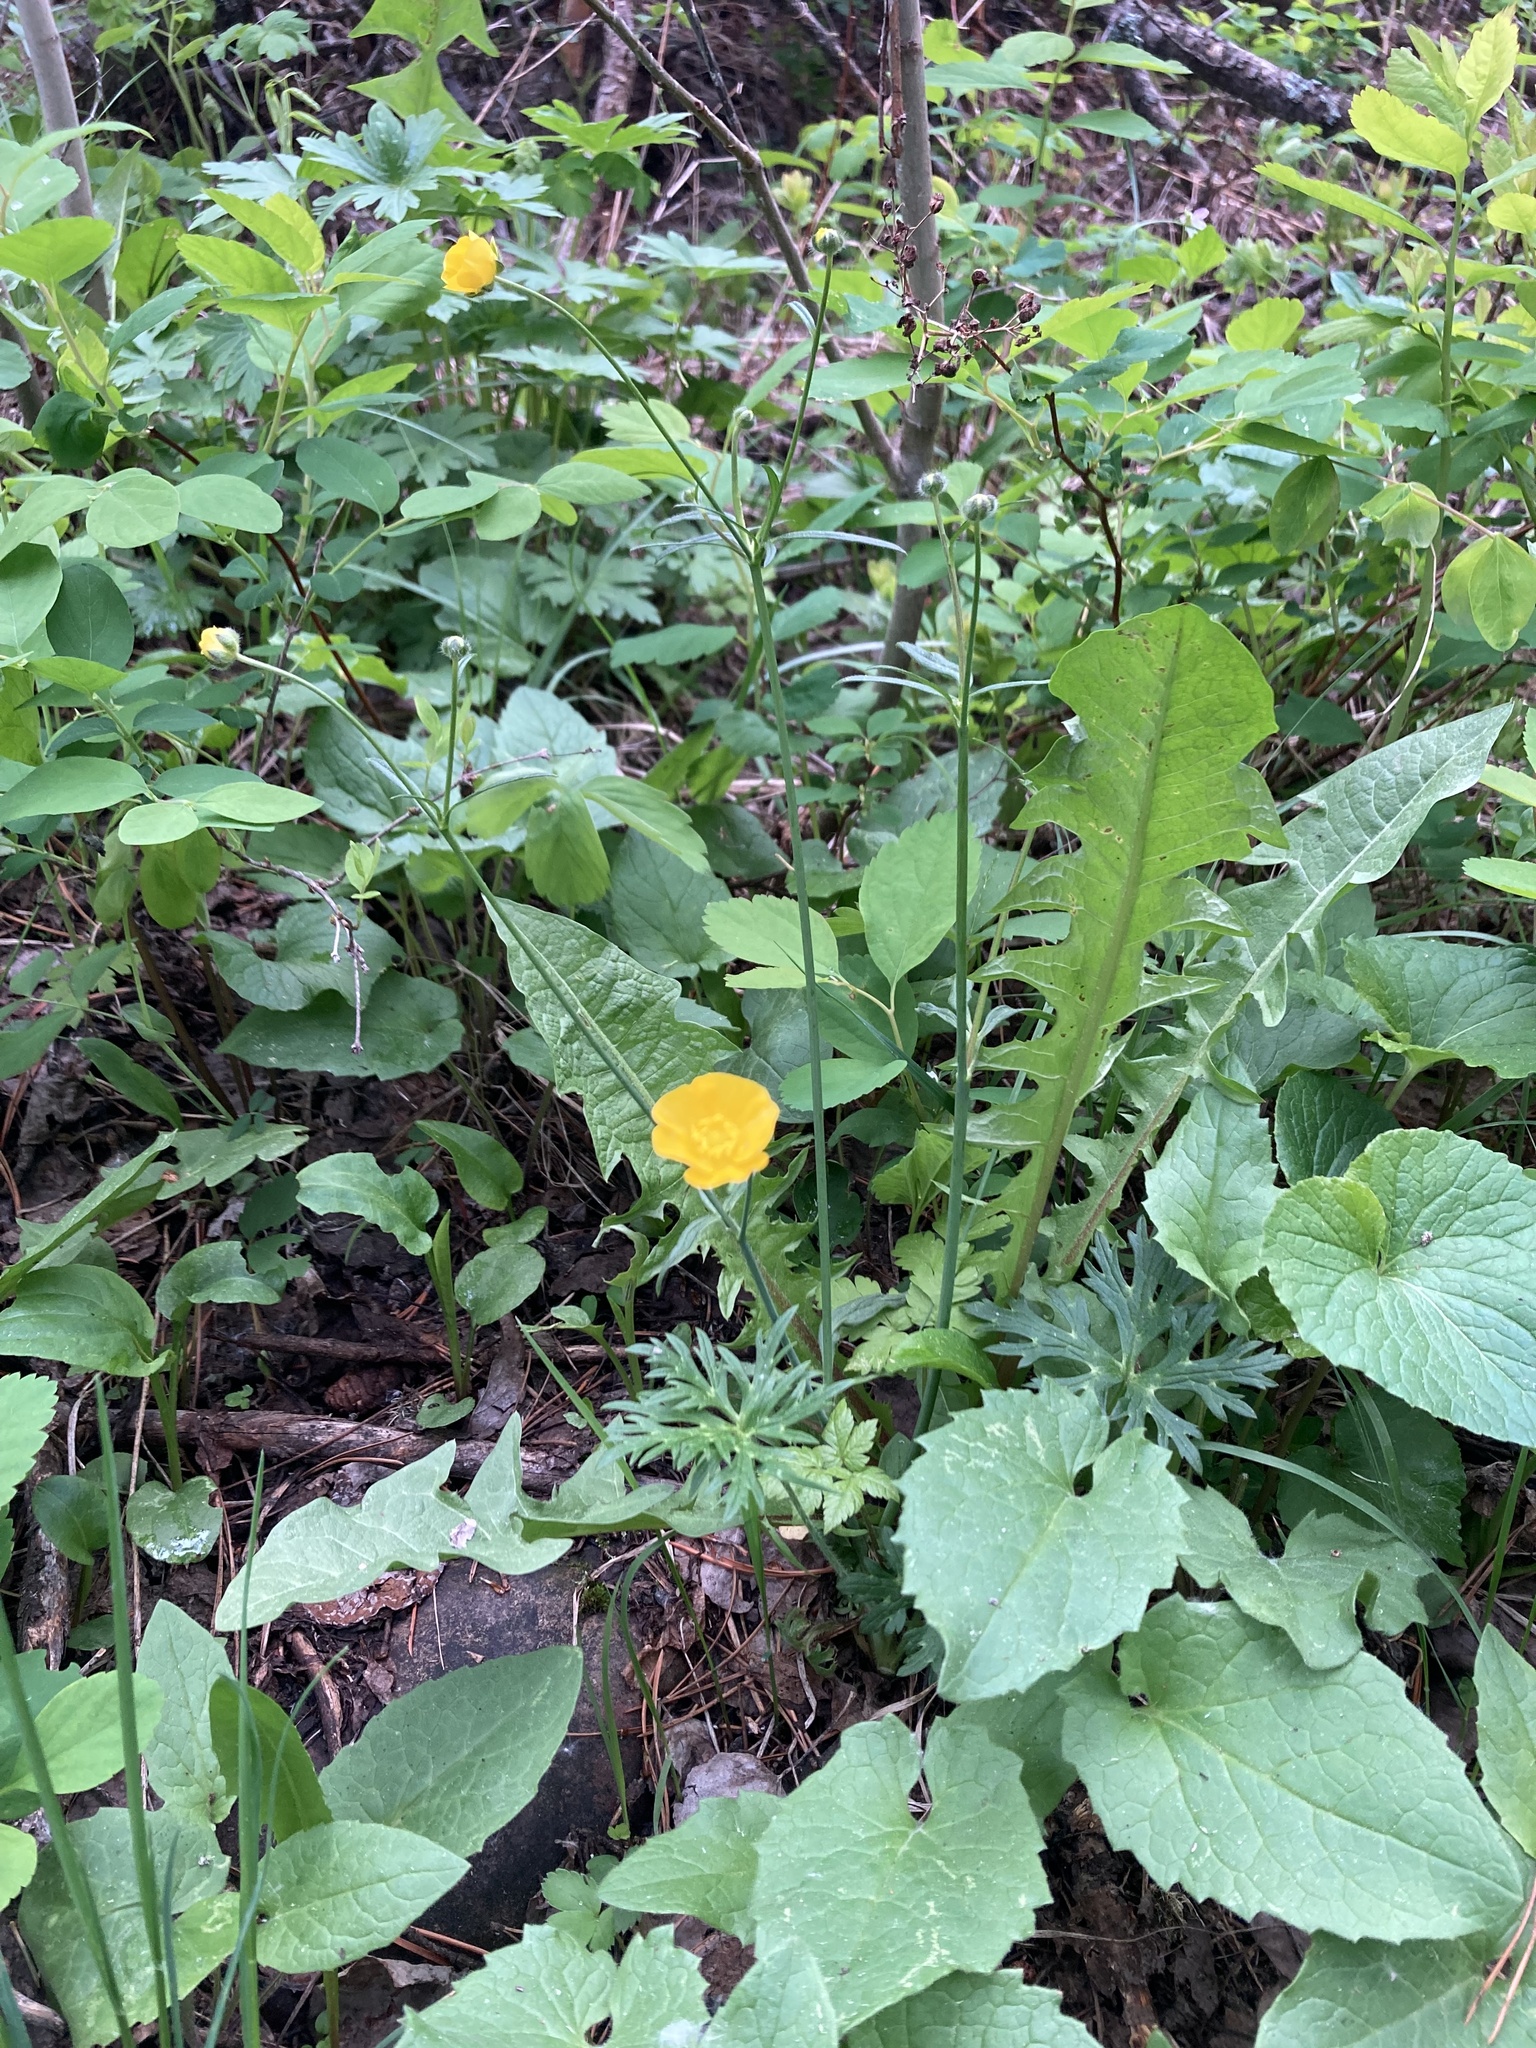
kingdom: Plantae
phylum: Tracheophyta
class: Magnoliopsida
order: Ranunculales
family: Ranunculaceae
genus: Ranunculus
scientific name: Ranunculus acris
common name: Meadow buttercup
